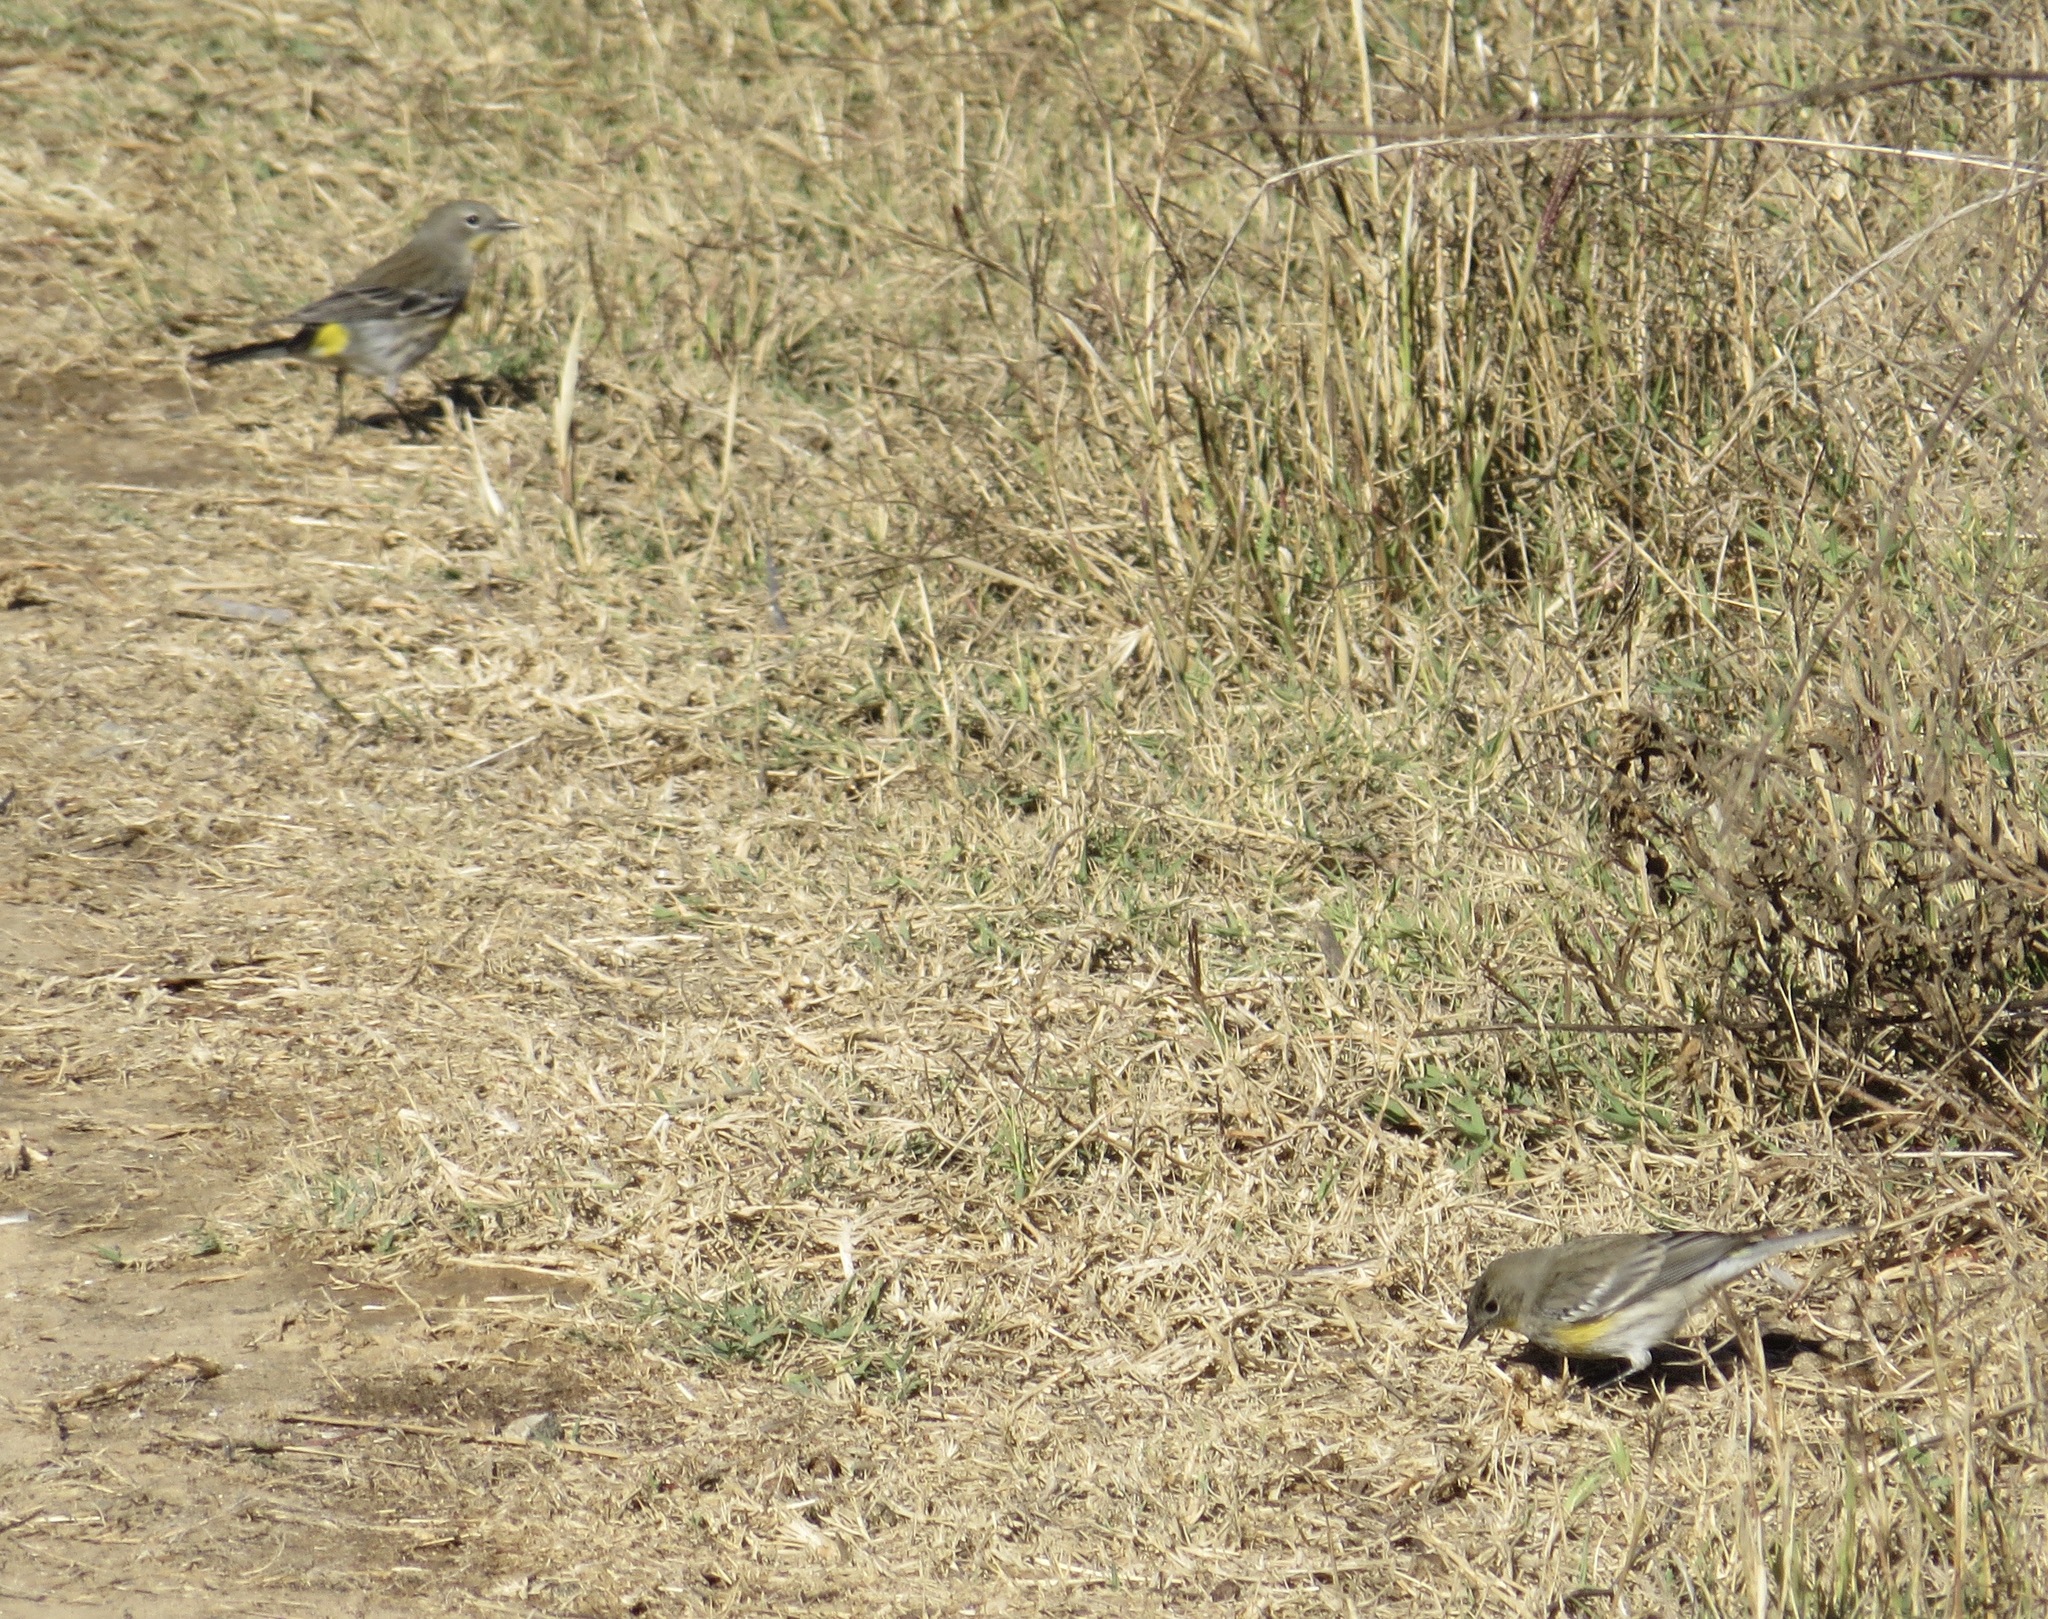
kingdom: Animalia
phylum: Chordata
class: Aves
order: Passeriformes
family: Parulidae
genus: Setophaga
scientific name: Setophaga coronata
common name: Myrtle warbler
